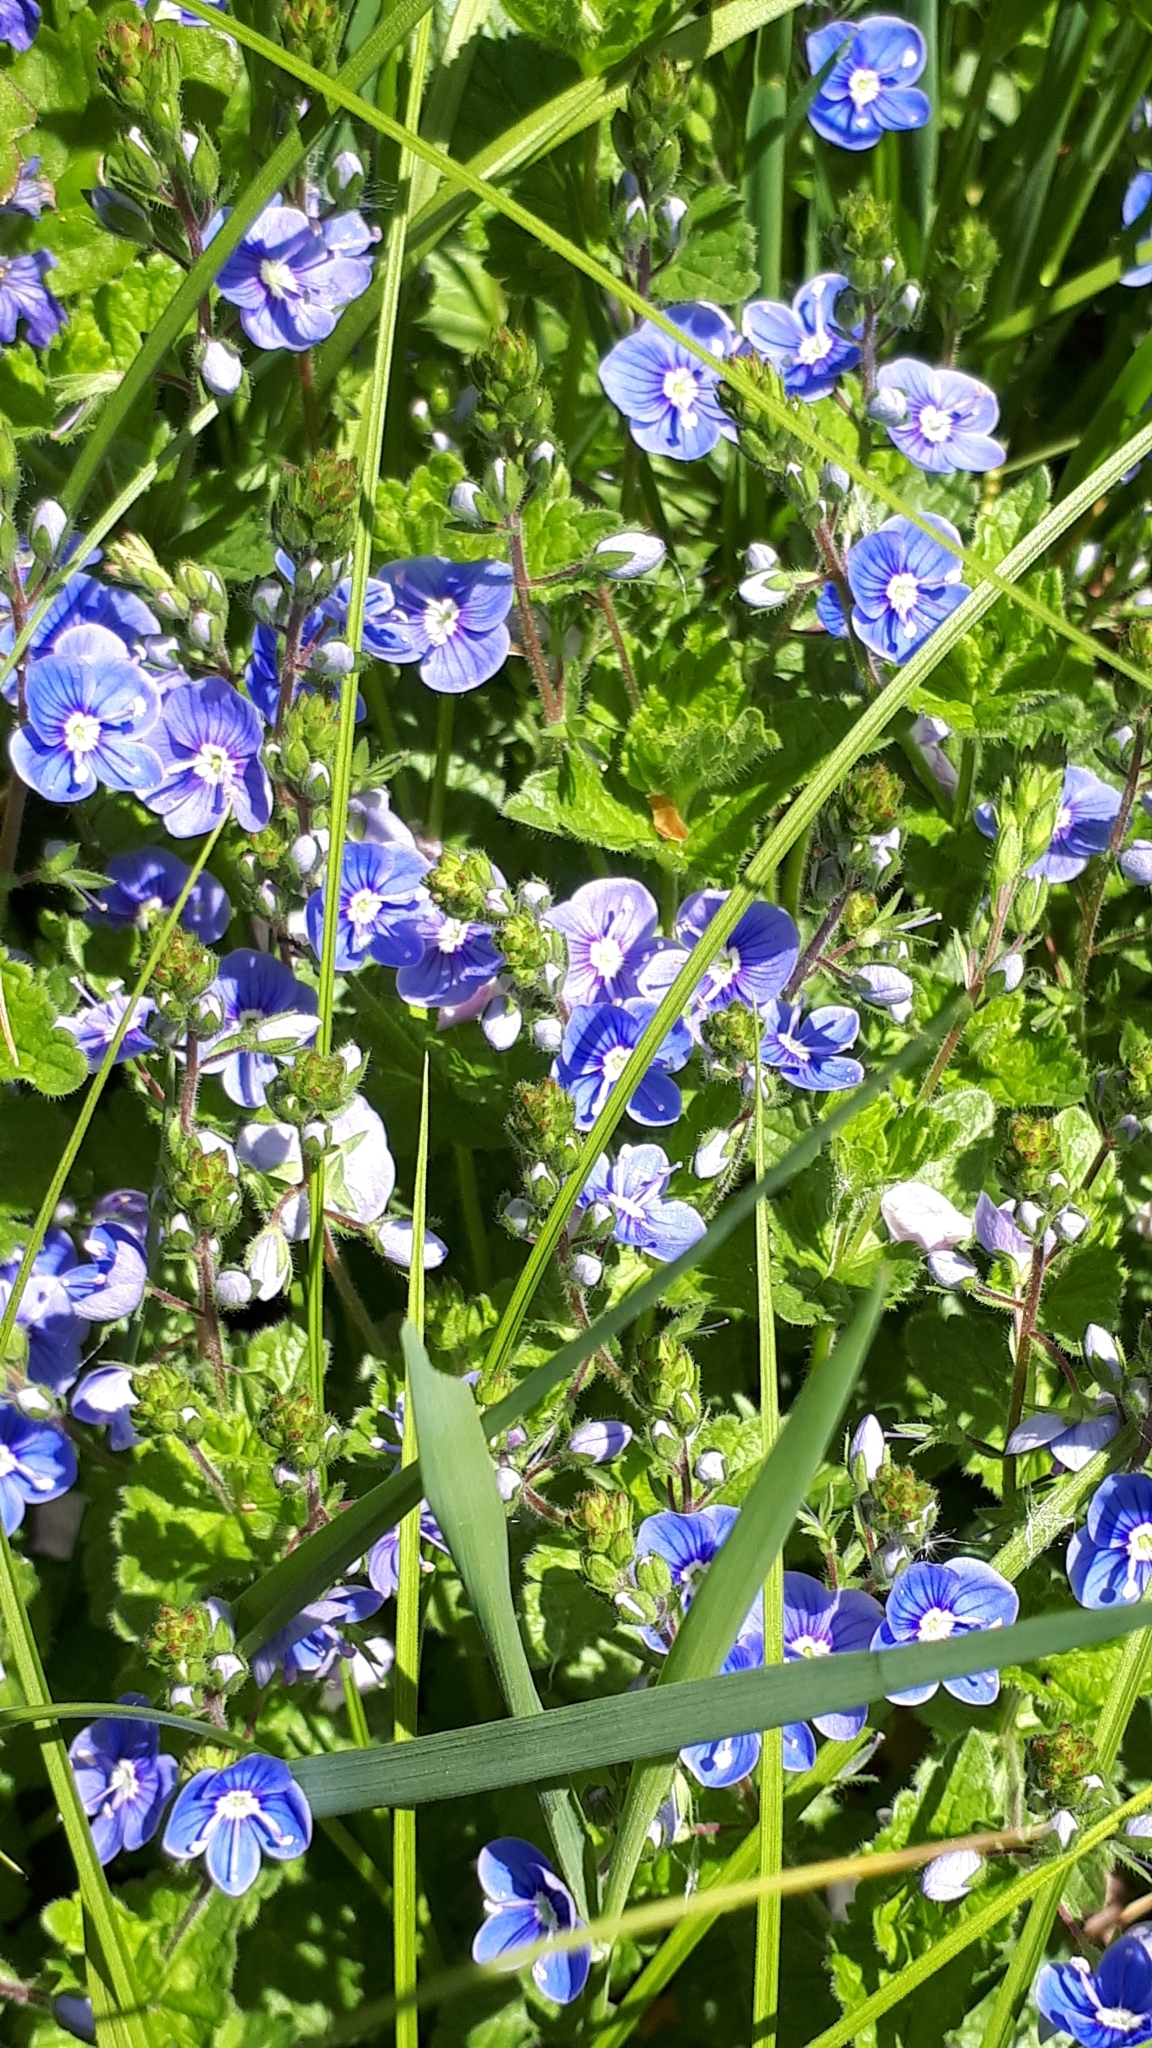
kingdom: Plantae
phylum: Tracheophyta
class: Magnoliopsida
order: Lamiales
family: Plantaginaceae
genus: Veronica
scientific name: Veronica chamaedrys
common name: Germander speedwell
